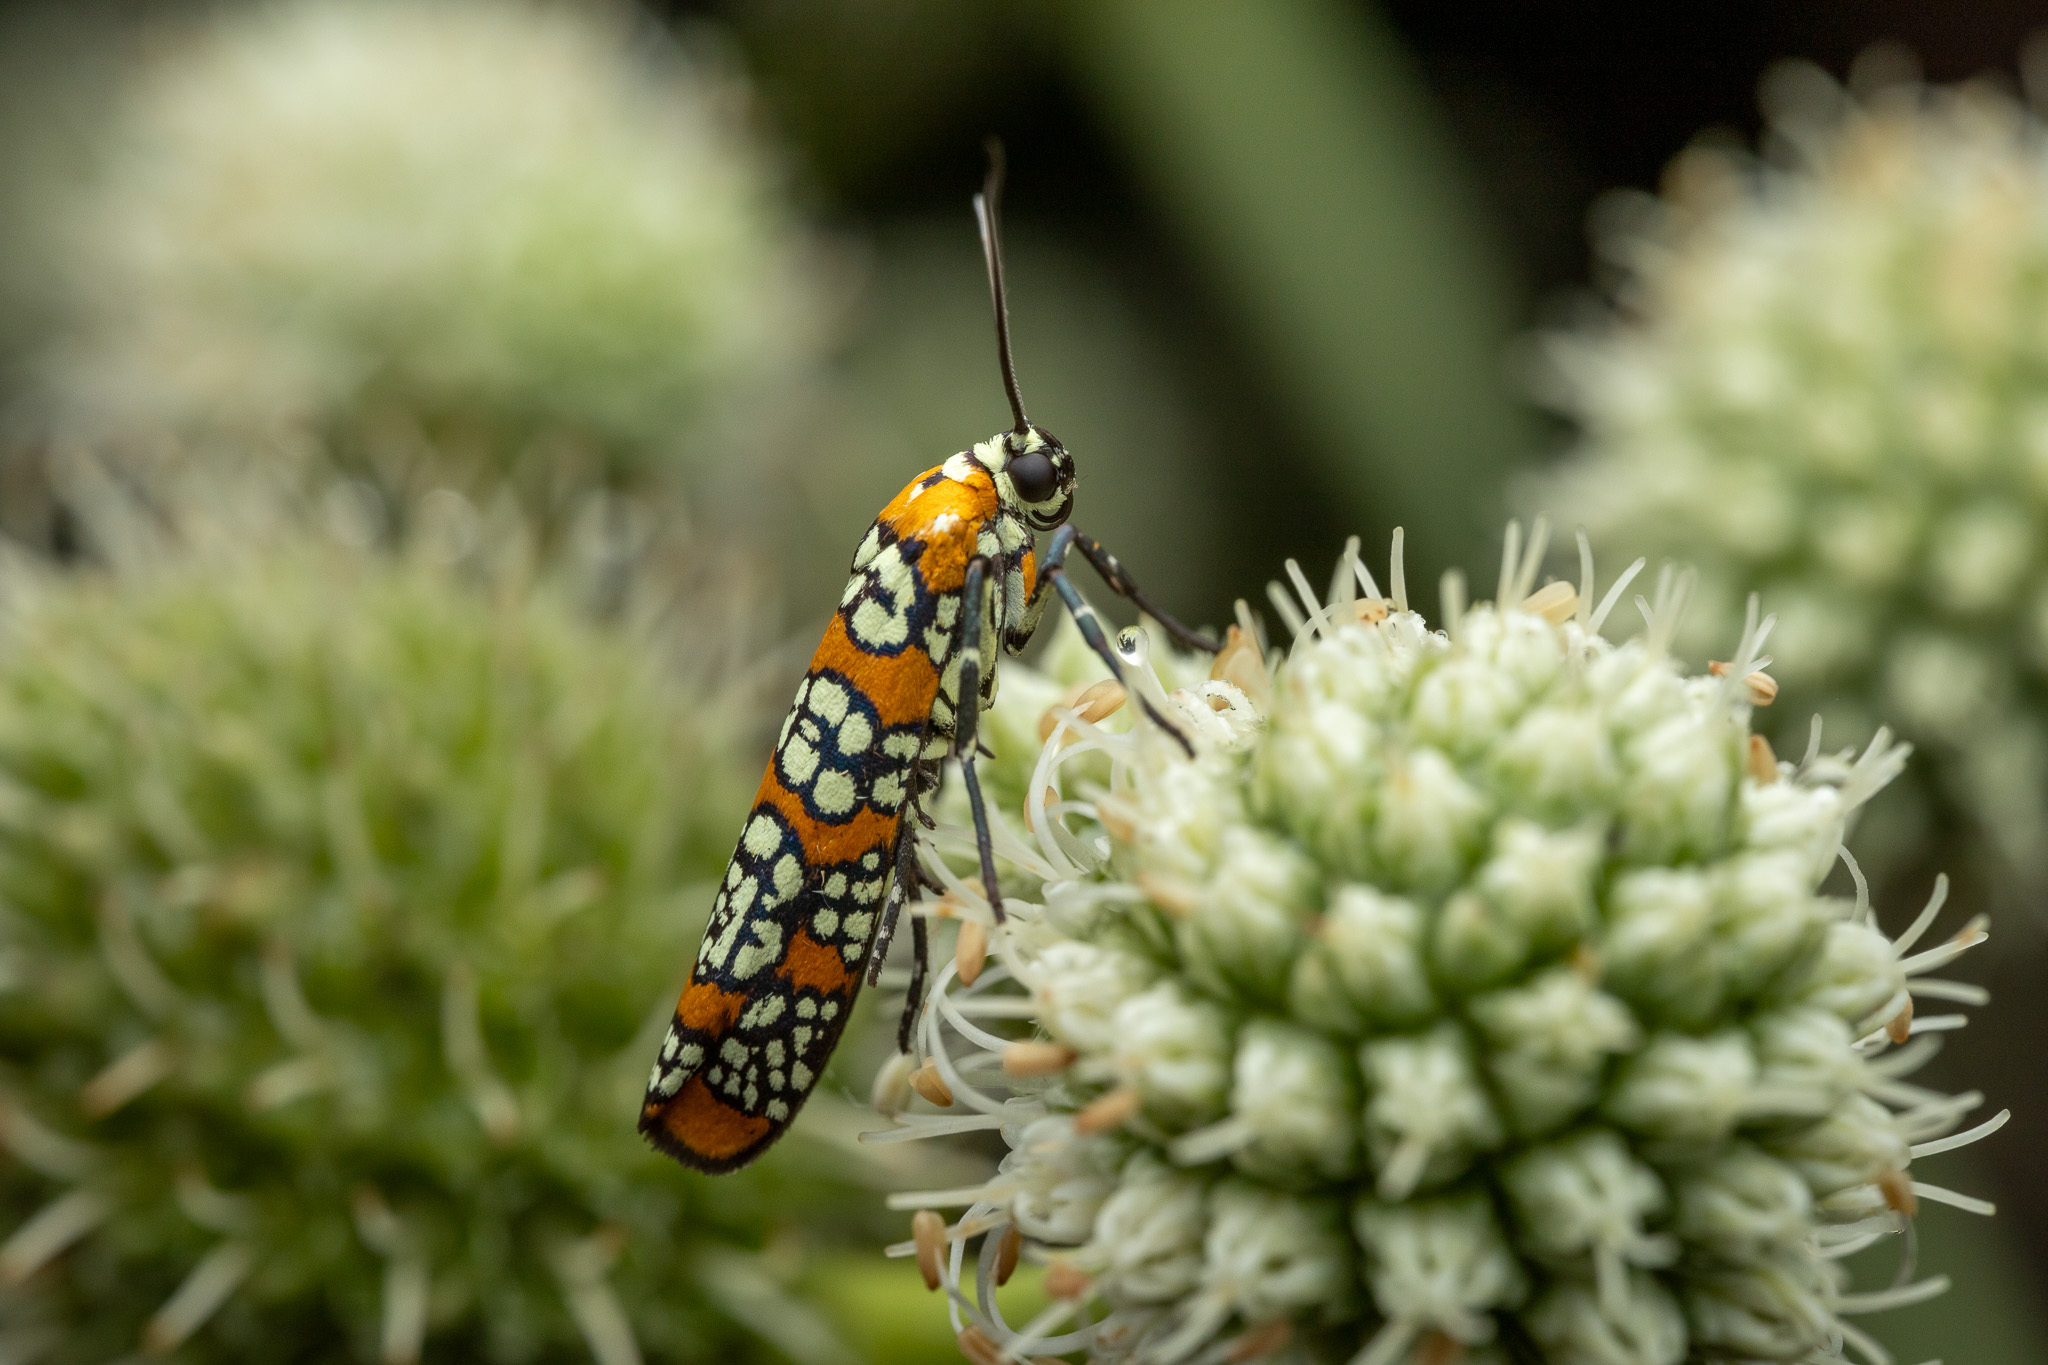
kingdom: Animalia
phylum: Arthropoda
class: Insecta
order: Lepidoptera
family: Attevidae
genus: Atteva
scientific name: Atteva punctella
